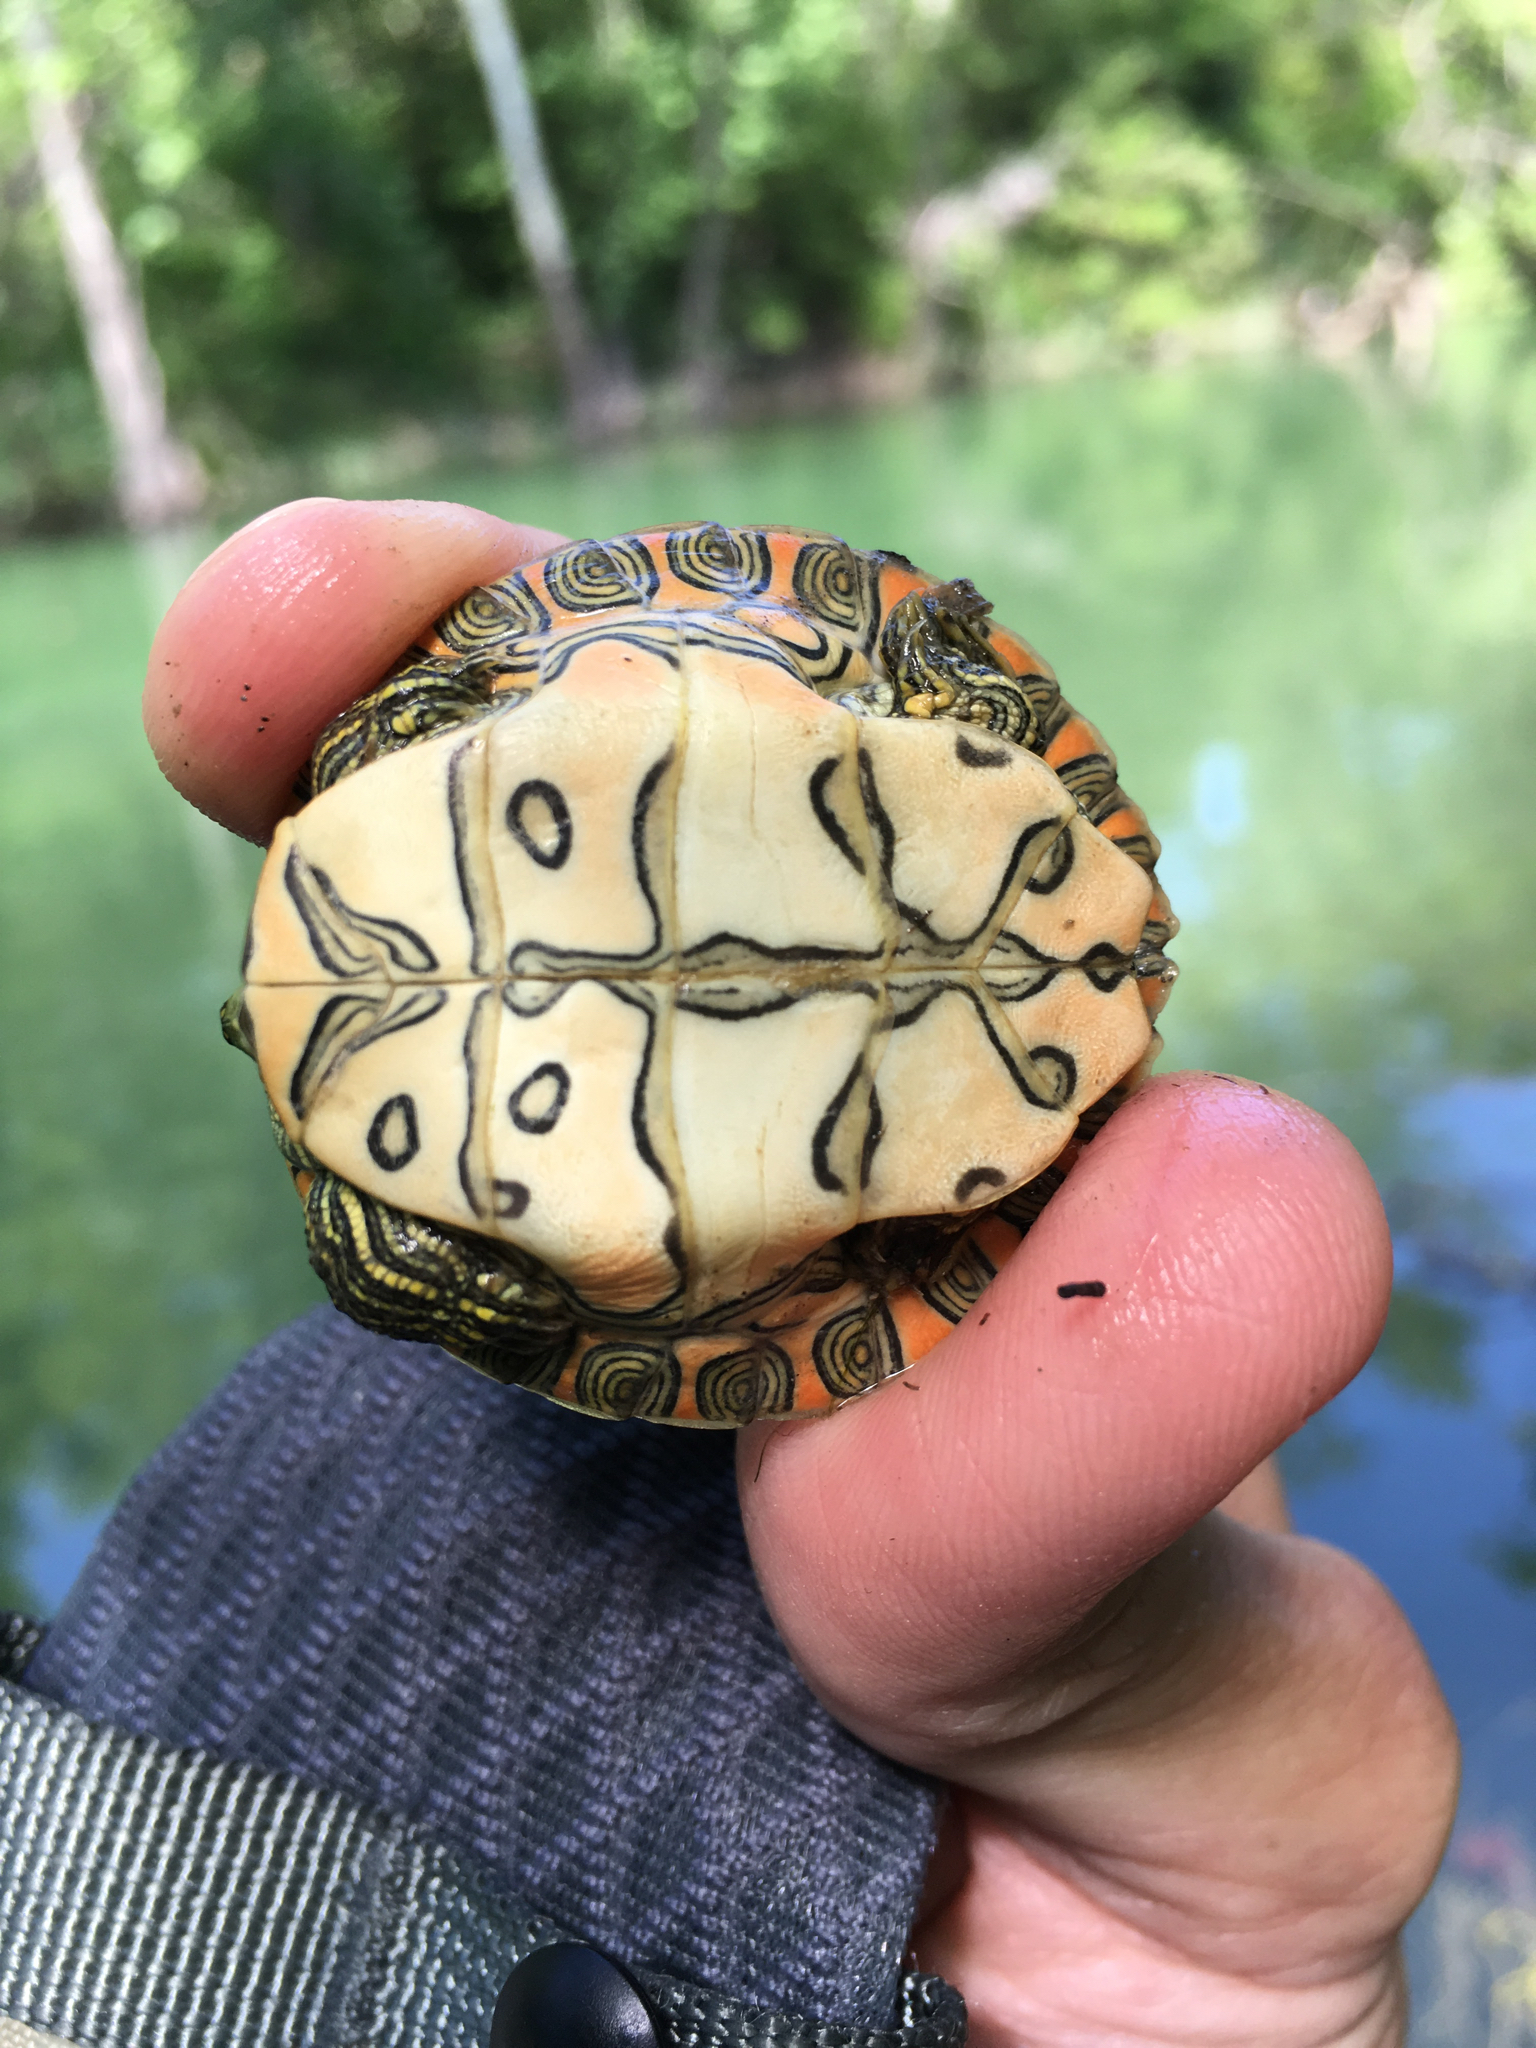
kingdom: Animalia
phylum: Chordata
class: Testudines
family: Emydidae
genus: Pseudemys
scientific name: Pseudemys texana
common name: Texas river cooter
